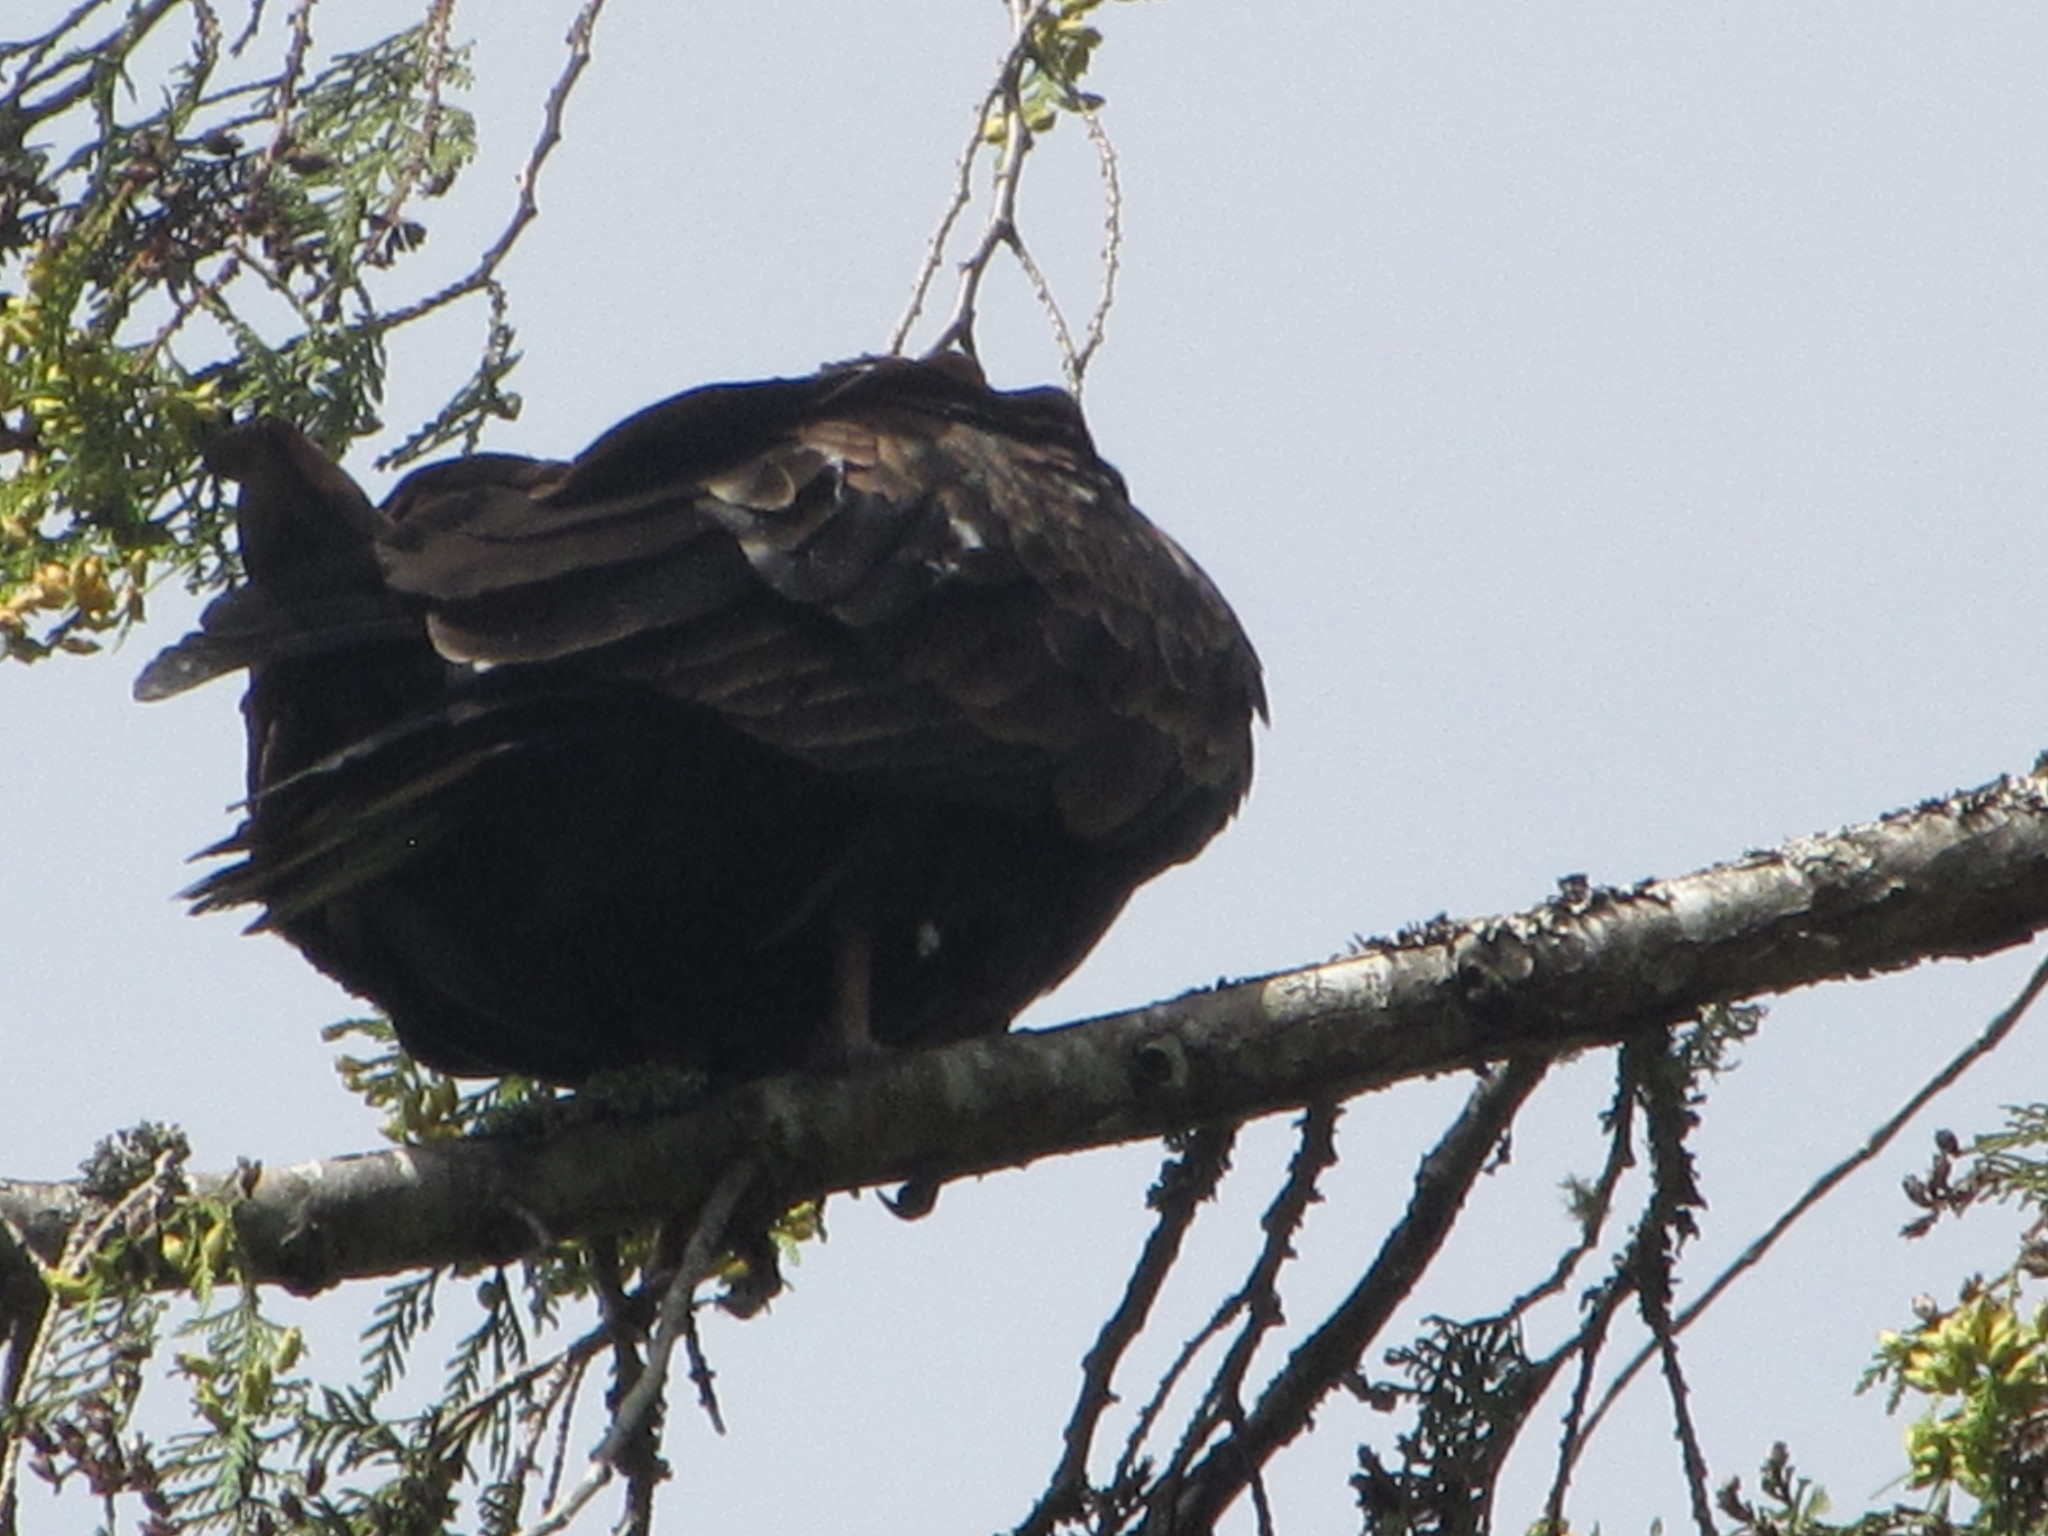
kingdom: Animalia
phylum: Chordata
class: Aves
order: Accipitriformes
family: Cathartidae
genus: Cathartes
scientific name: Cathartes aura
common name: Turkey vulture
